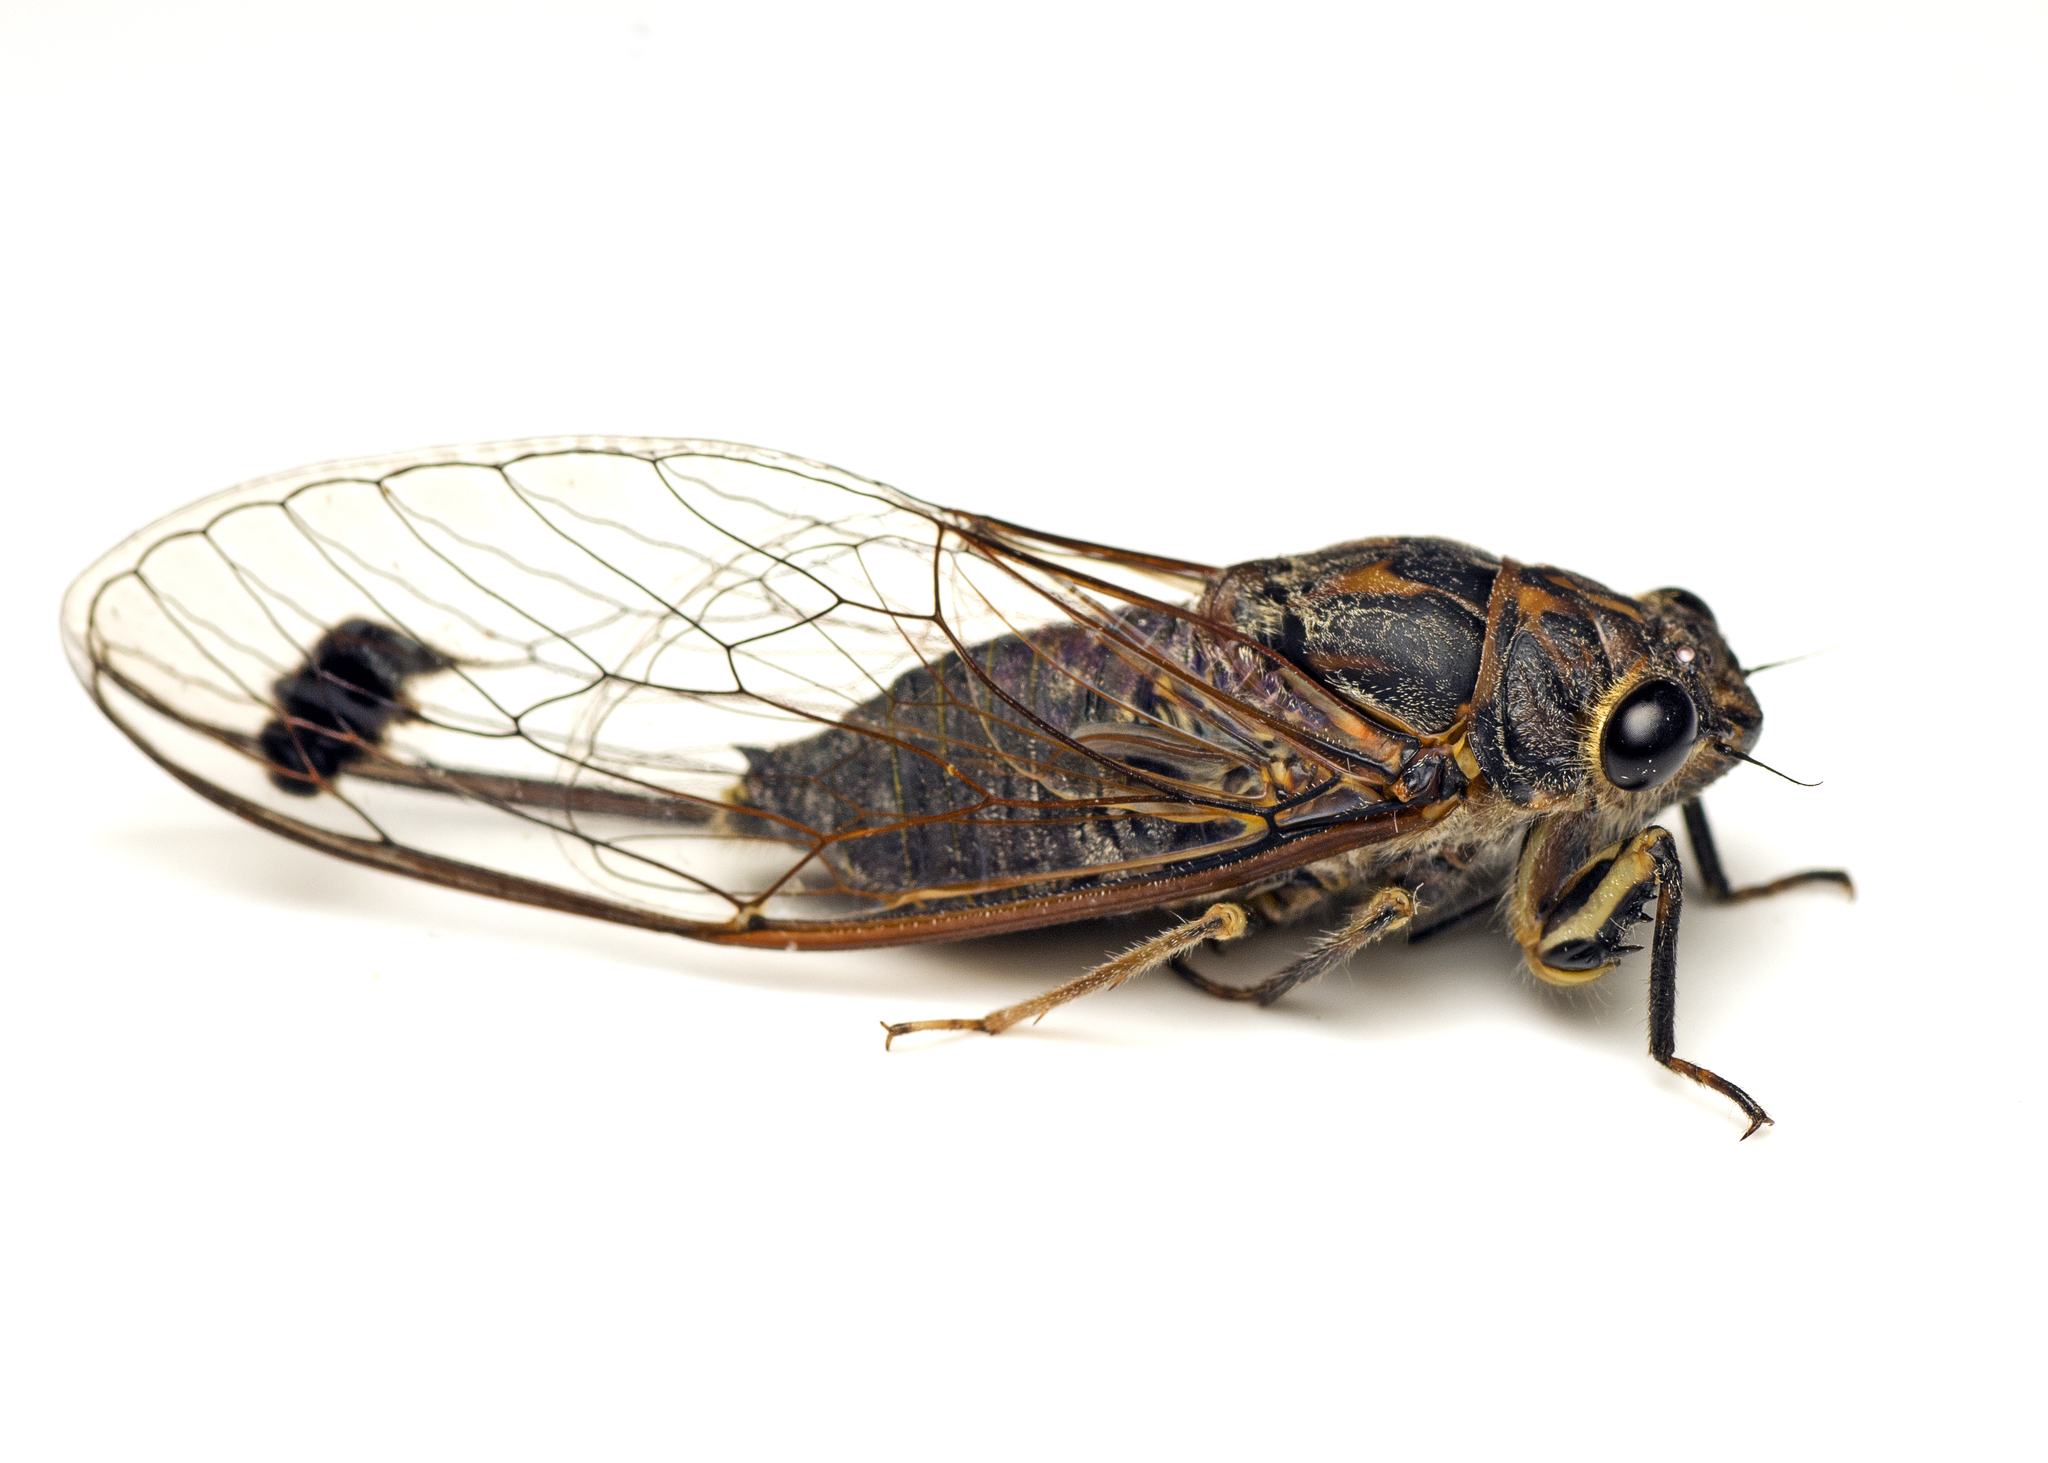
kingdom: Animalia
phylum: Arthropoda
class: Insecta
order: Hemiptera
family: Cicadidae
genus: Galanga
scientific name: Galanga labeculata
